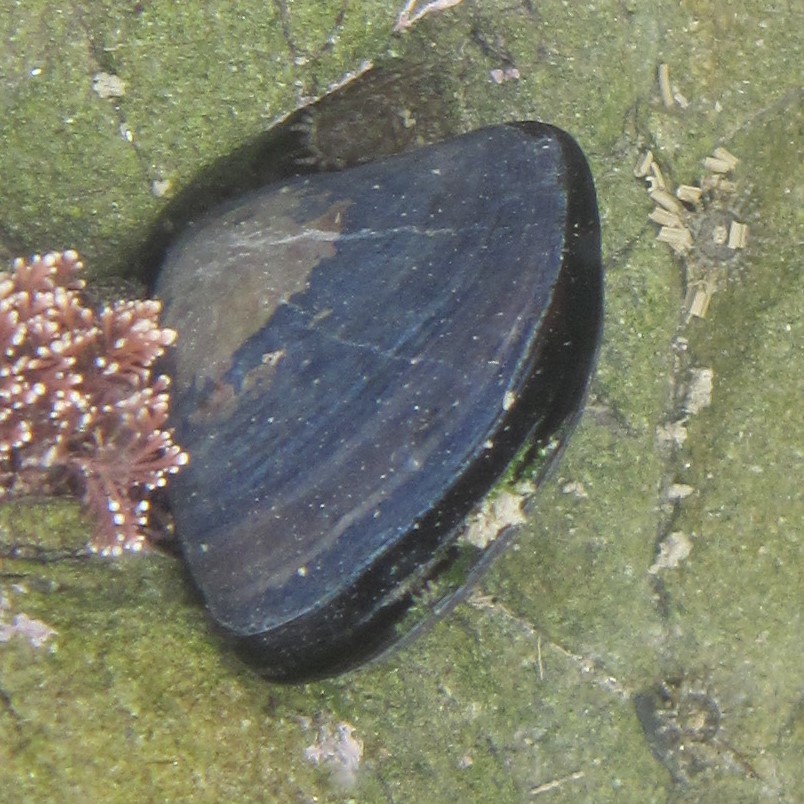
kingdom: Animalia
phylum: Mollusca
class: Bivalvia
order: Mytilida
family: Mytilidae
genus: Mytilus
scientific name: Mytilus planulatus
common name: Australian mussel
